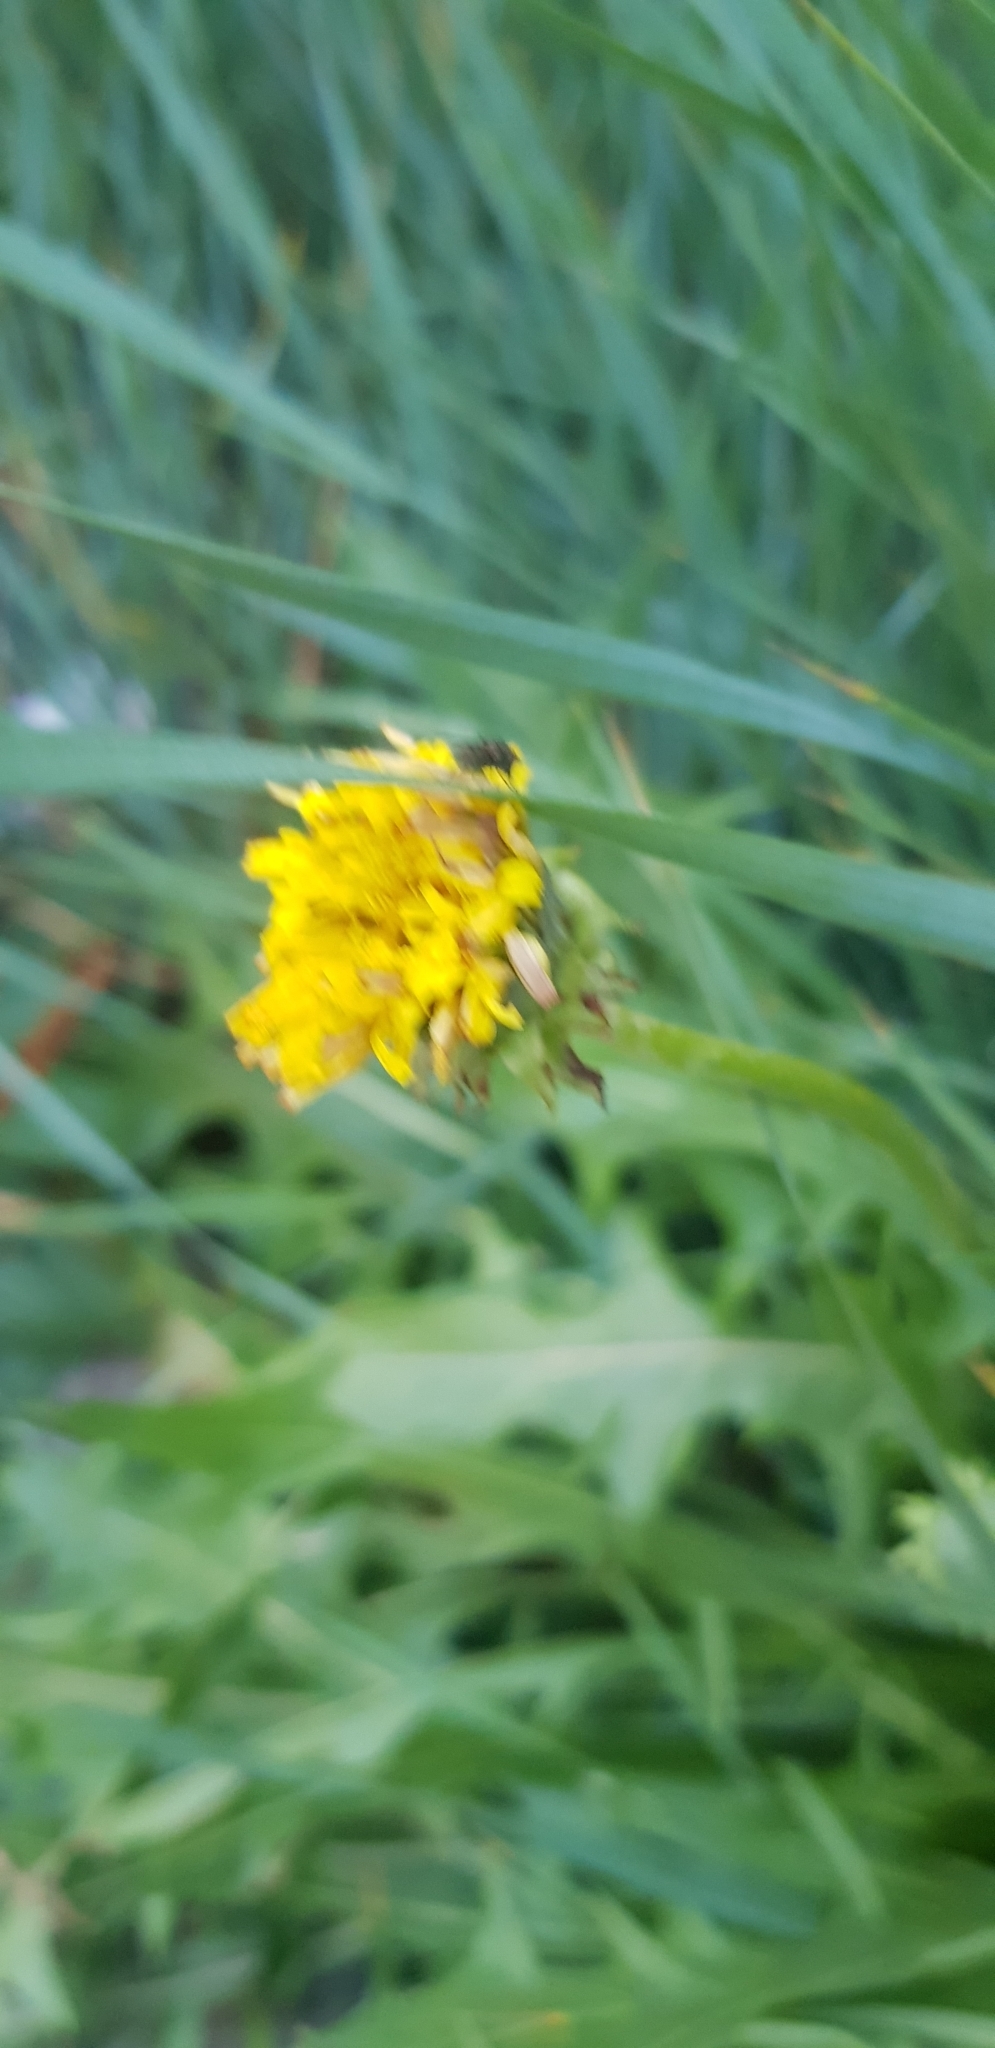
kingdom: Plantae
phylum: Tracheophyta
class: Magnoliopsida
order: Asterales
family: Asteraceae
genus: Taraxacum
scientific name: Taraxacum officinale
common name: Common dandelion
